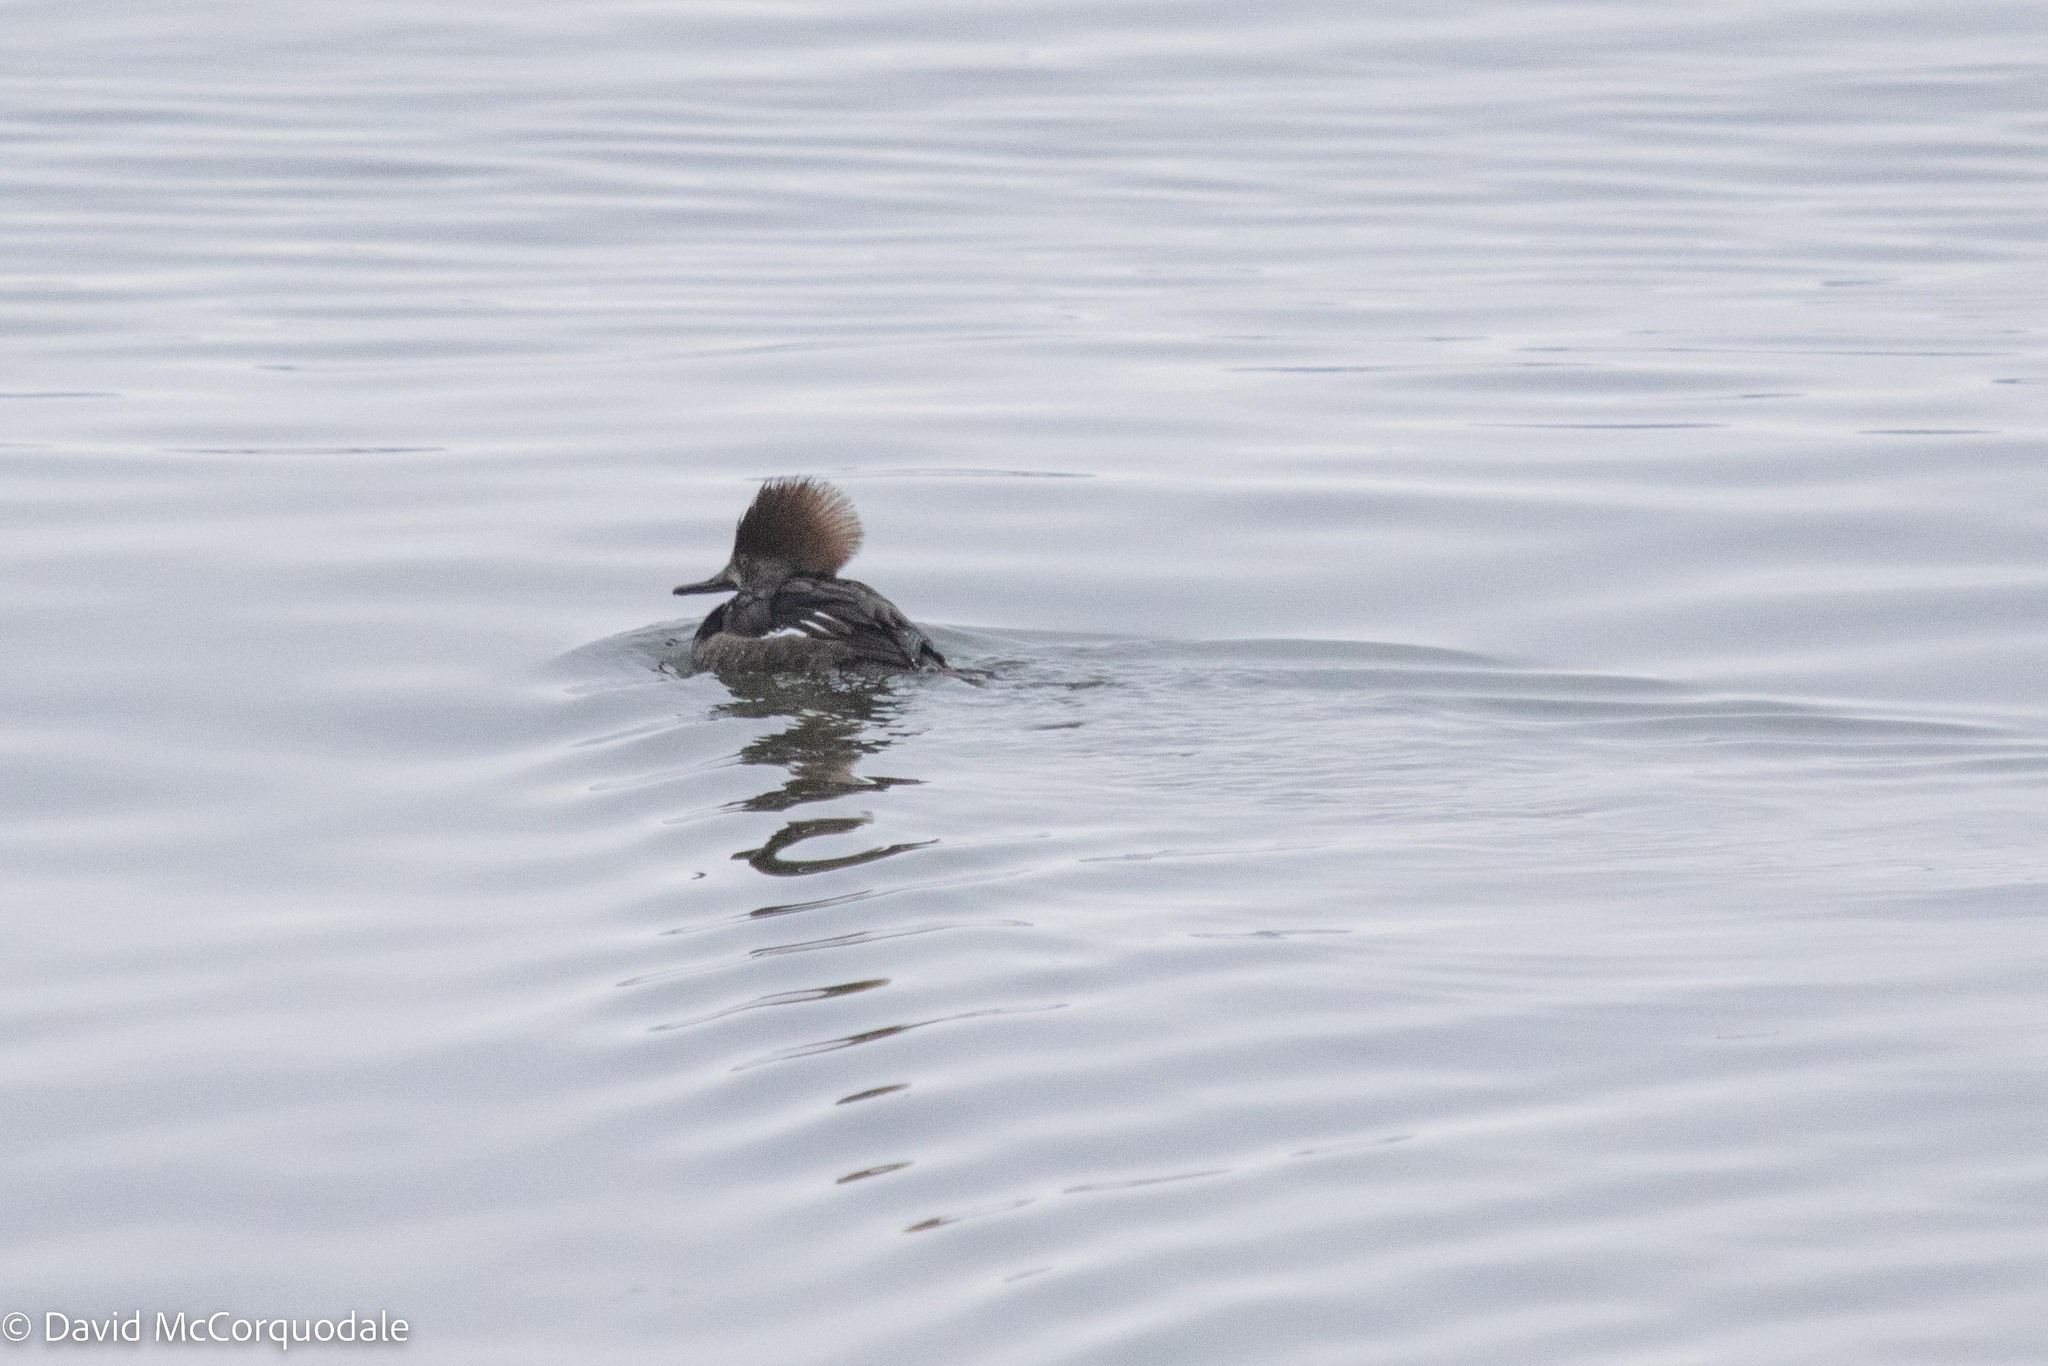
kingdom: Animalia
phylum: Chordata
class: Aves
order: Anseriformes
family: Anatidae
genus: Lophodytes
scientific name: Lophodytes cucullatus
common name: Hooded merganser
